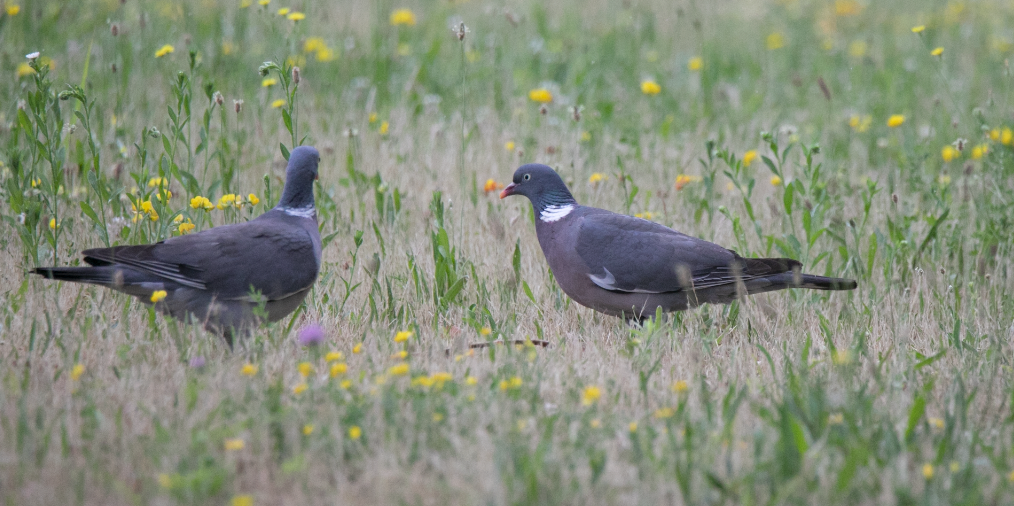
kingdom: Animalia
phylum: Chordata
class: Aves
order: Columbiformes
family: Columbidae
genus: Columba
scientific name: Columba palumbus
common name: Common wood pigeon
